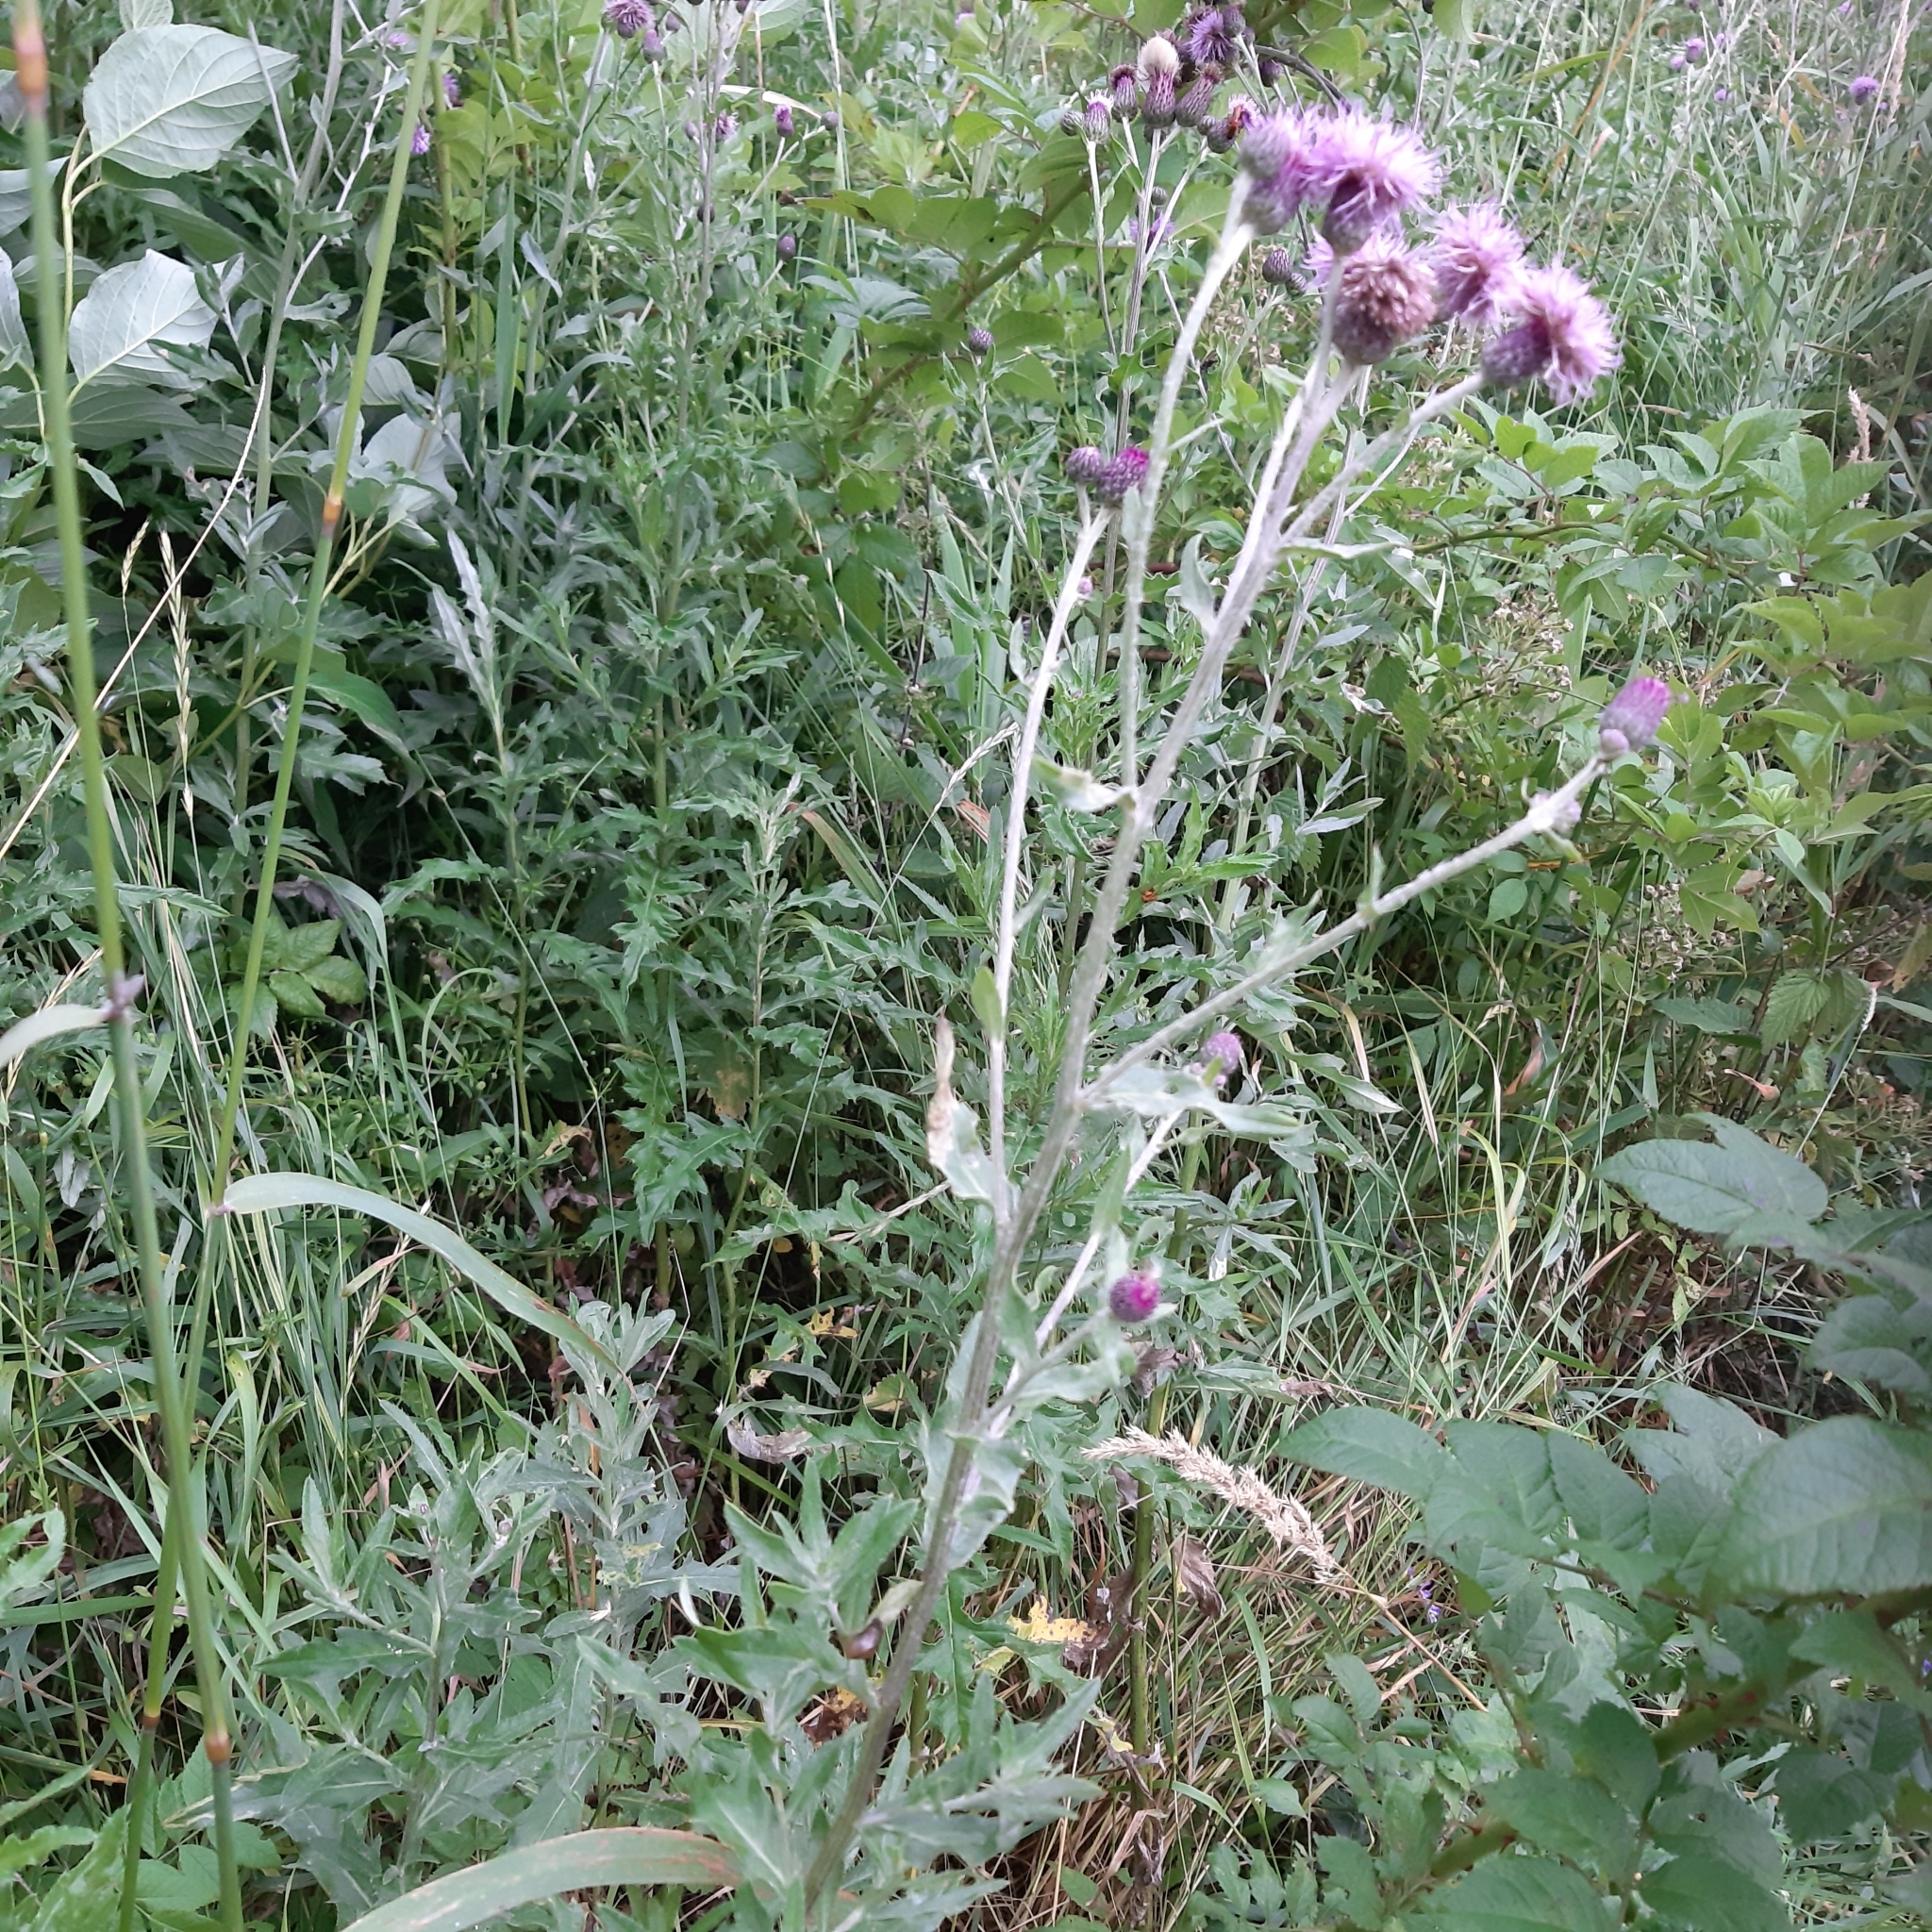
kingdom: Plantae
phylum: Tracheophyta
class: Magnoliopsida
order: Asterales
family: Asteraceae
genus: Cirsium
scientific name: Cirsium arvense
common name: Creeping thistle
